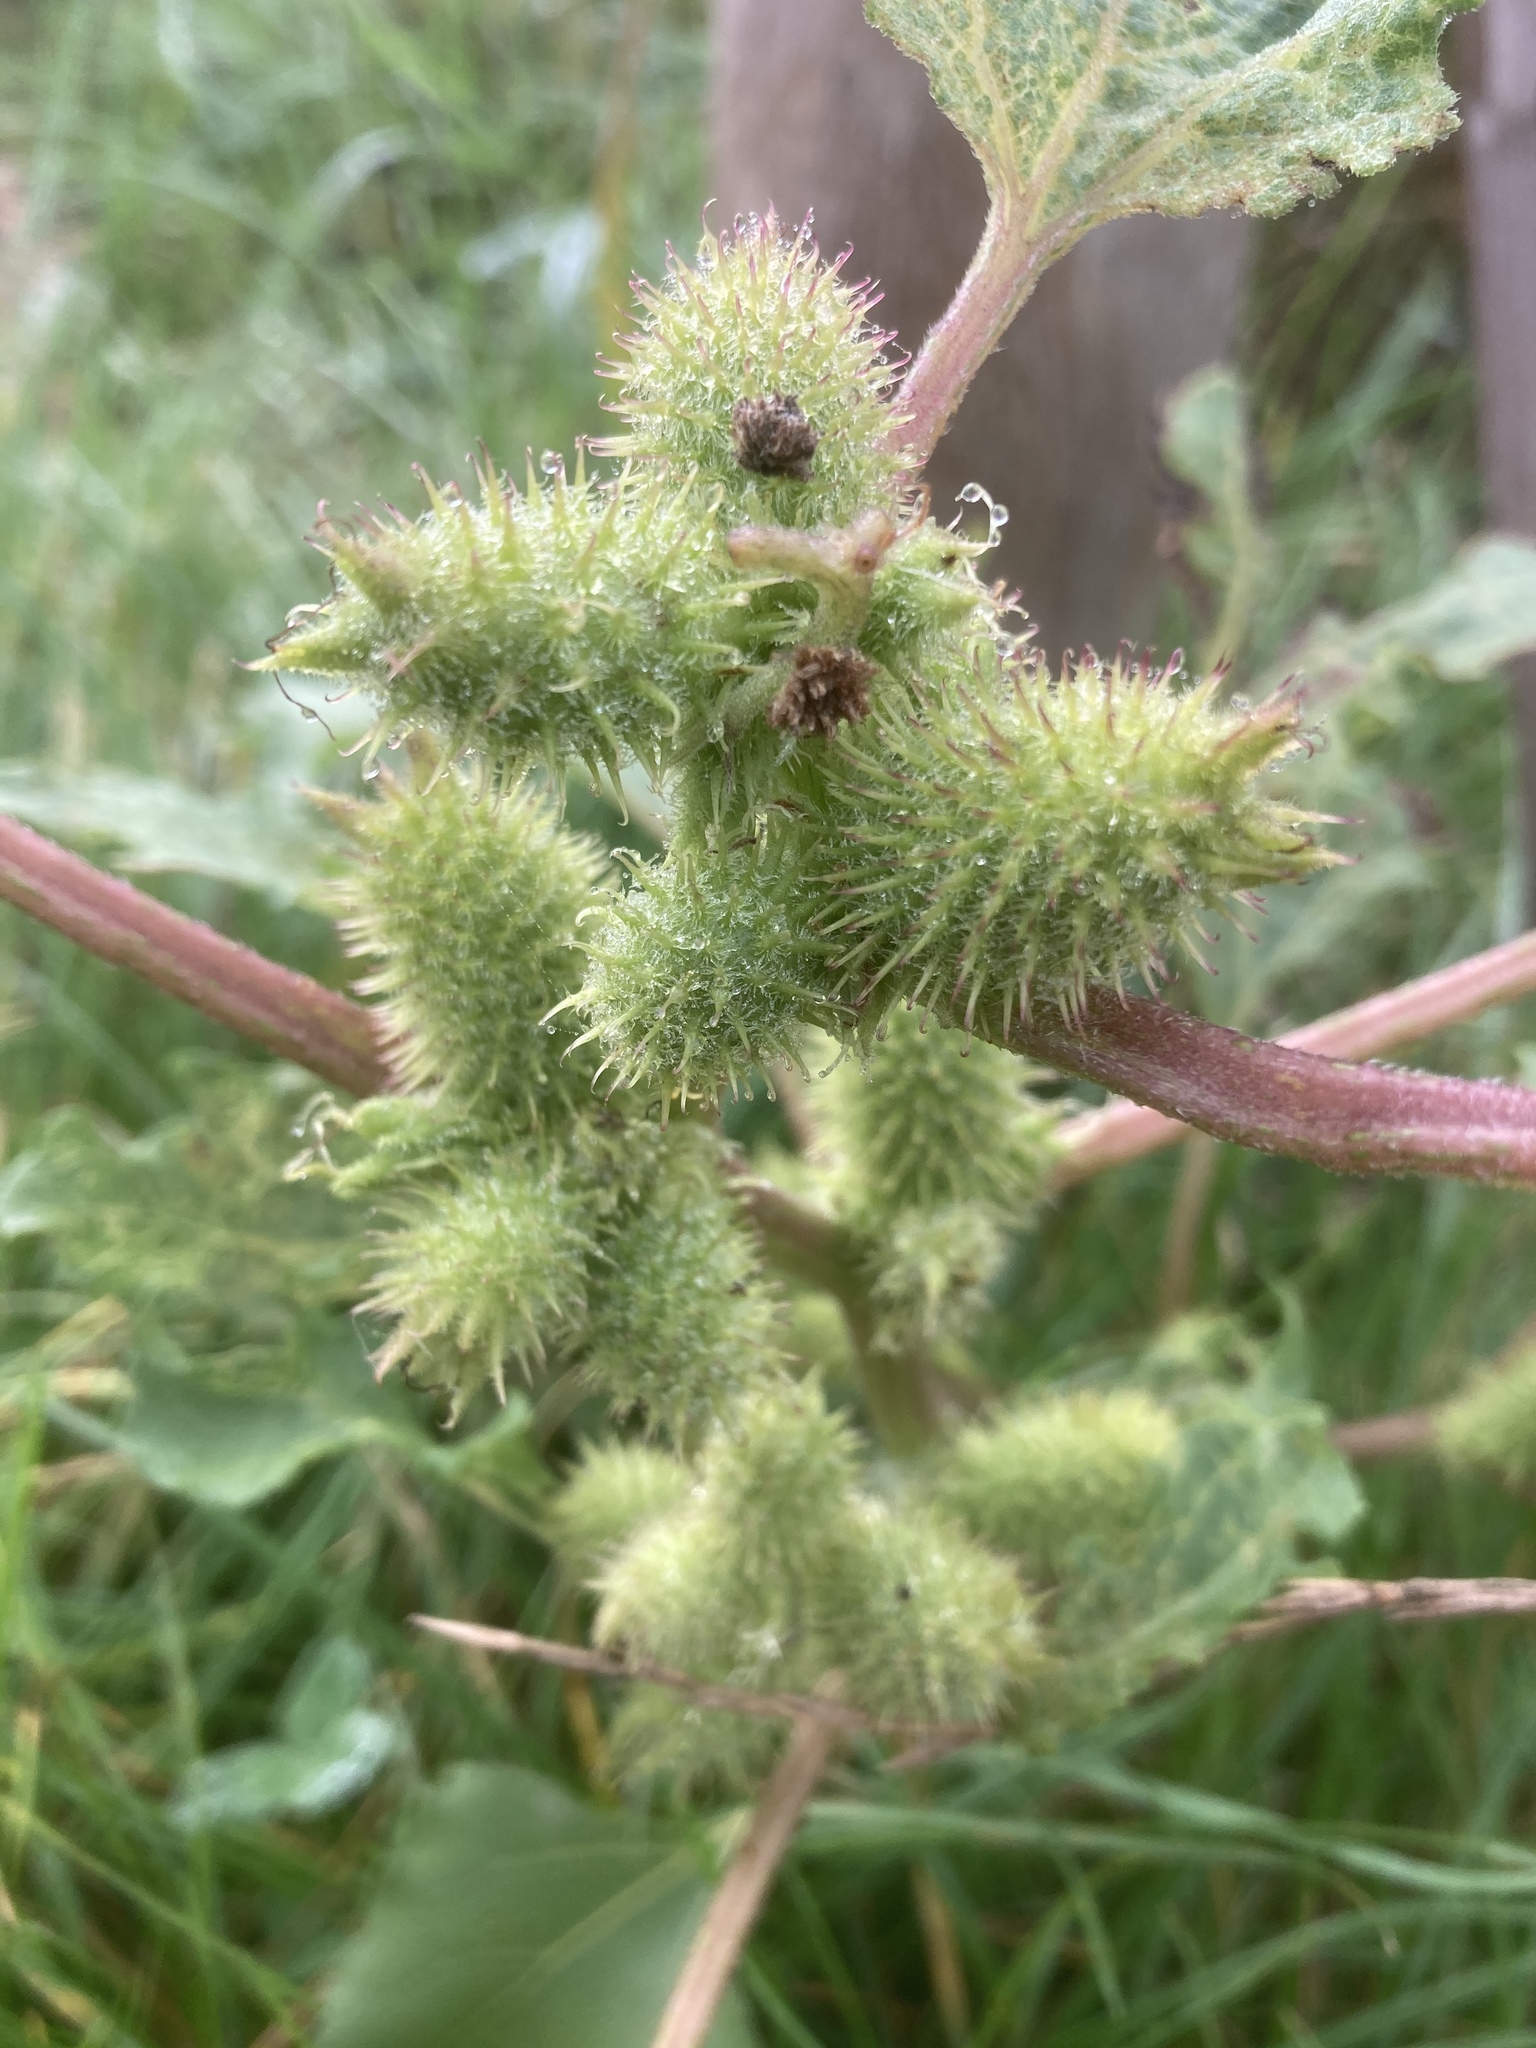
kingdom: Plantae
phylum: Tracheophyta
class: Magnoliopsida
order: Asterales
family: Asteraceae
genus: Xanthium
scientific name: Xanthium orientale
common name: Californian burr
